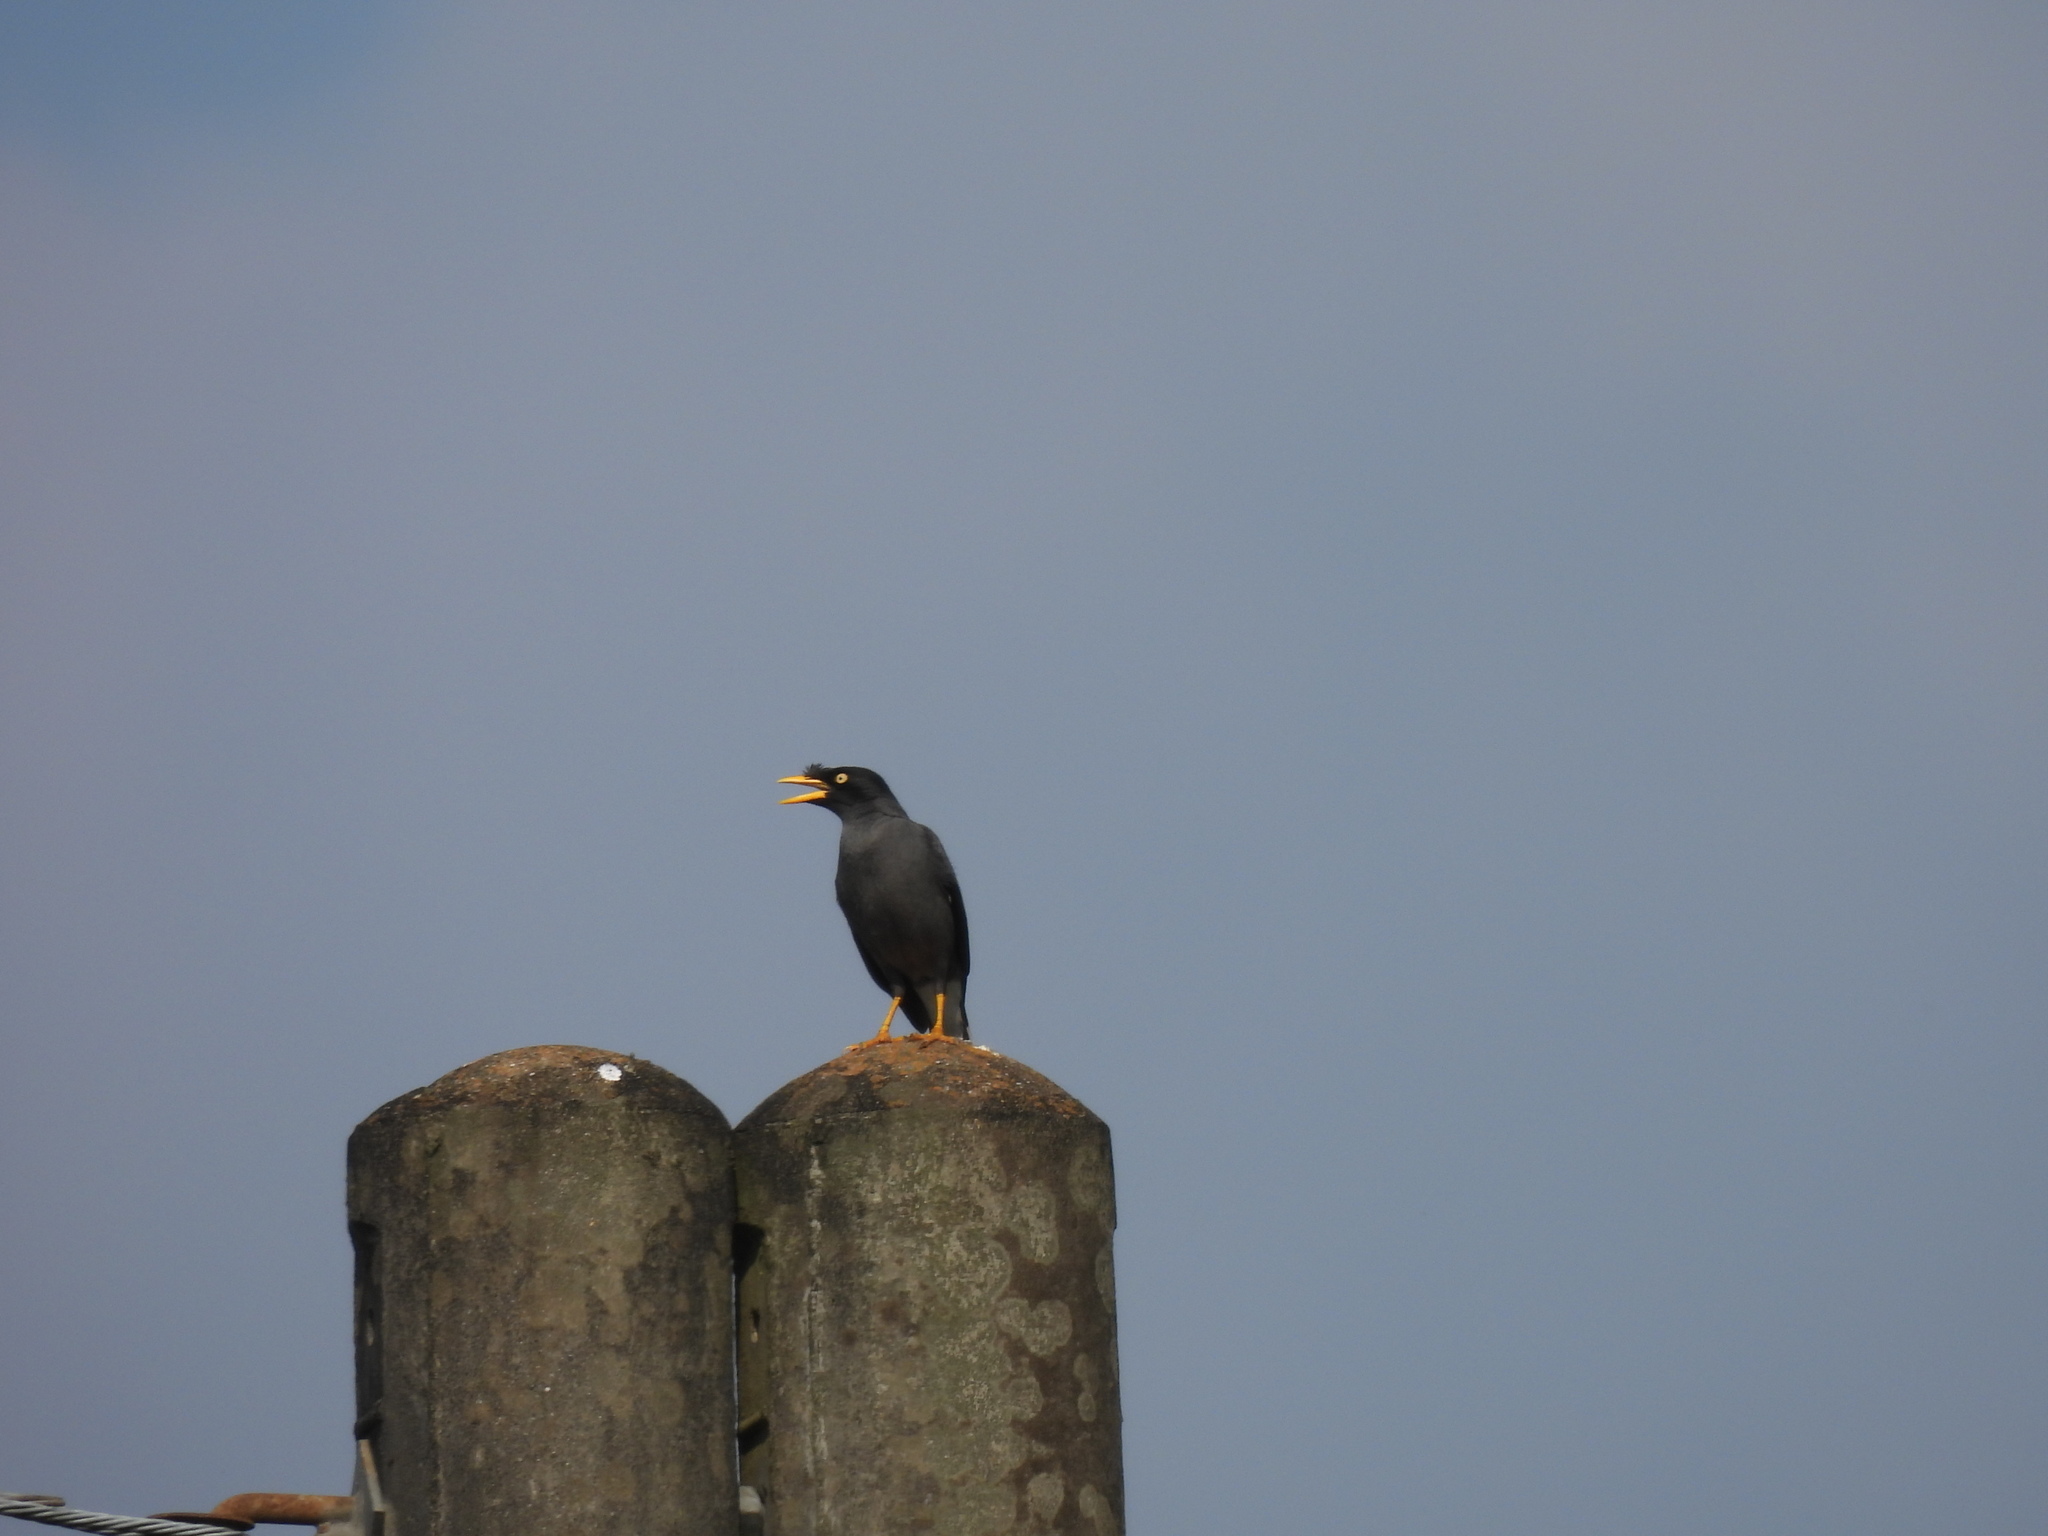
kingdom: Animalia
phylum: Chordata
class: Aves
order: Passeriformes
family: Sturnidae
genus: Acridotheres
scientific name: Acridotheres javanicus
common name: Javan myna
